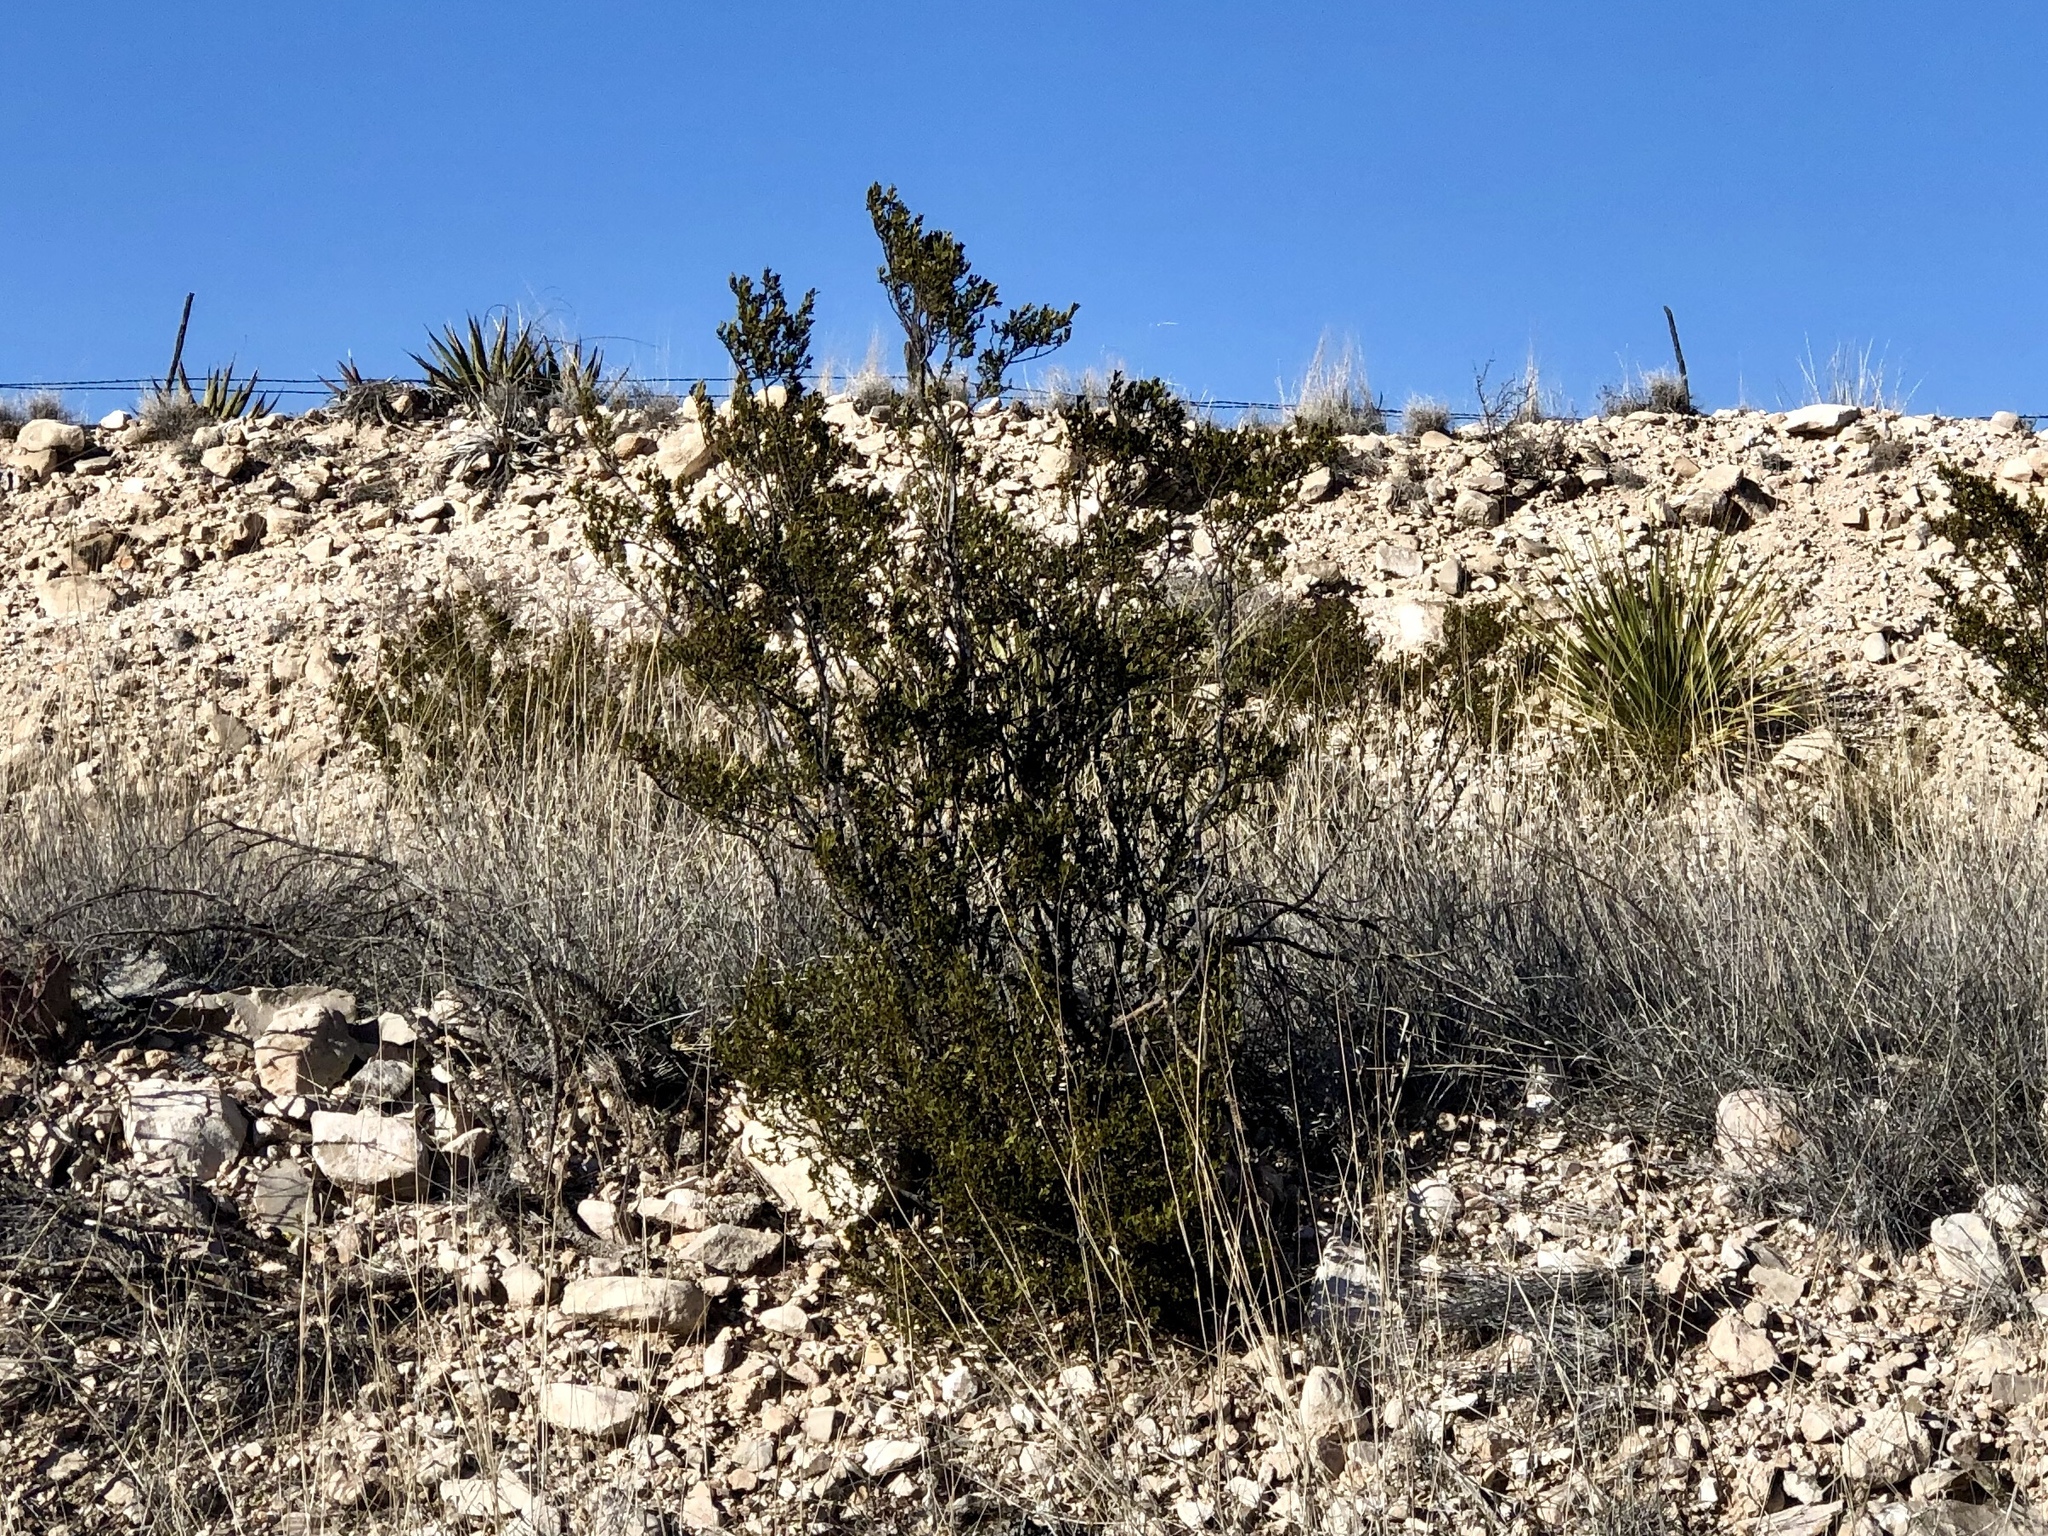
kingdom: Plantae
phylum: Tracheophyta
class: Magnoliopsida
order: Zygophyllales
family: Zygophyllaceae
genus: Larrea
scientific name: Larrea tridentata
